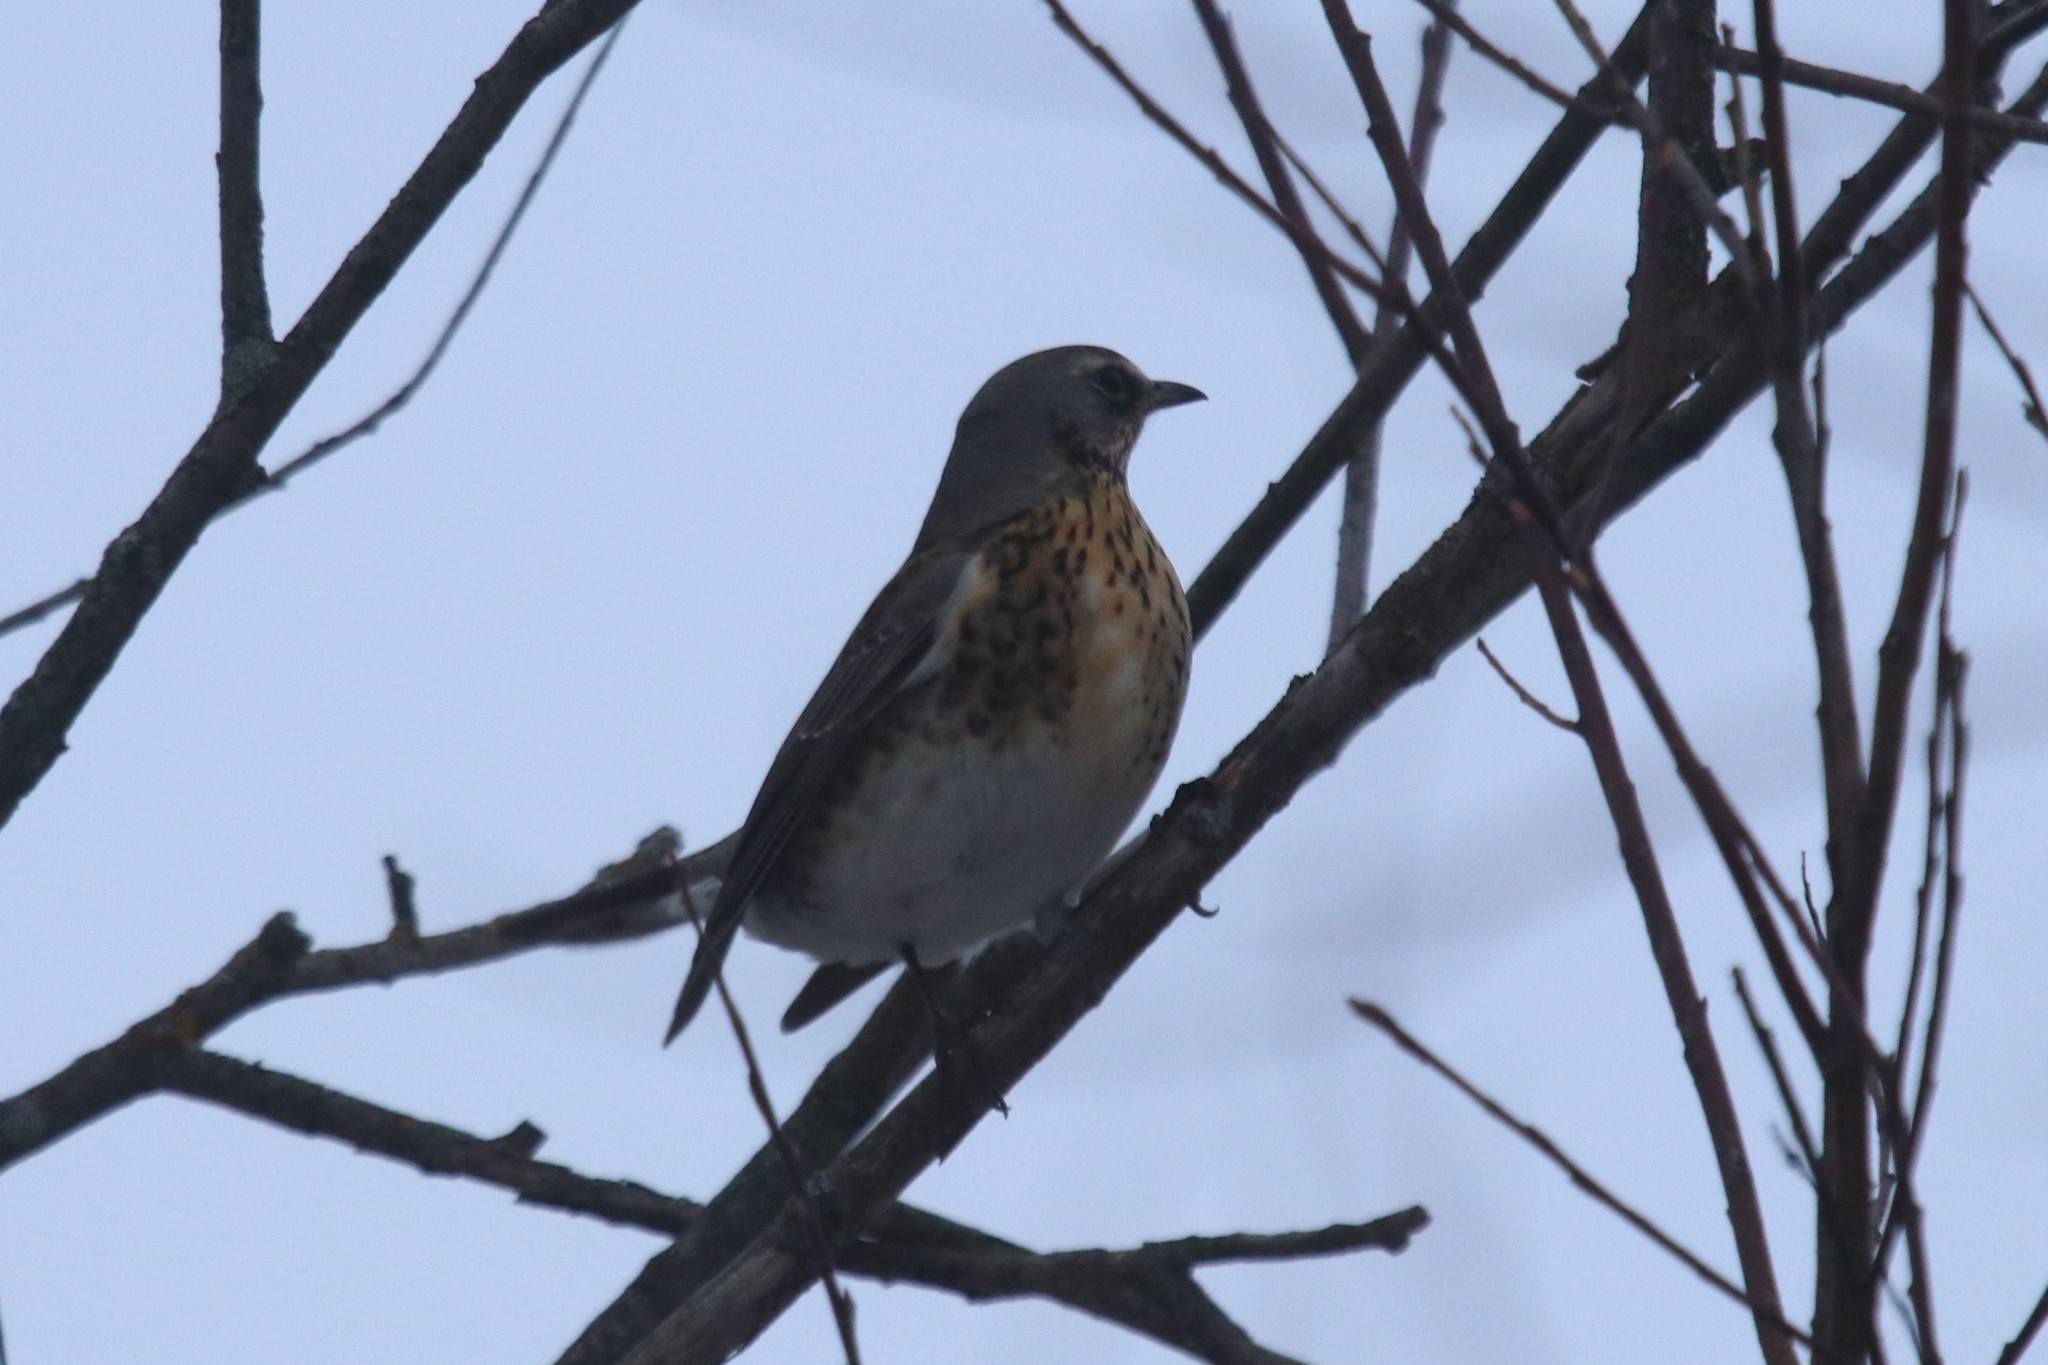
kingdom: Animalia
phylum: Chordata
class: Aves
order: Passeriformes
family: Turdidae
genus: Turdus
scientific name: Turdus pilaris
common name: Fieldfare
